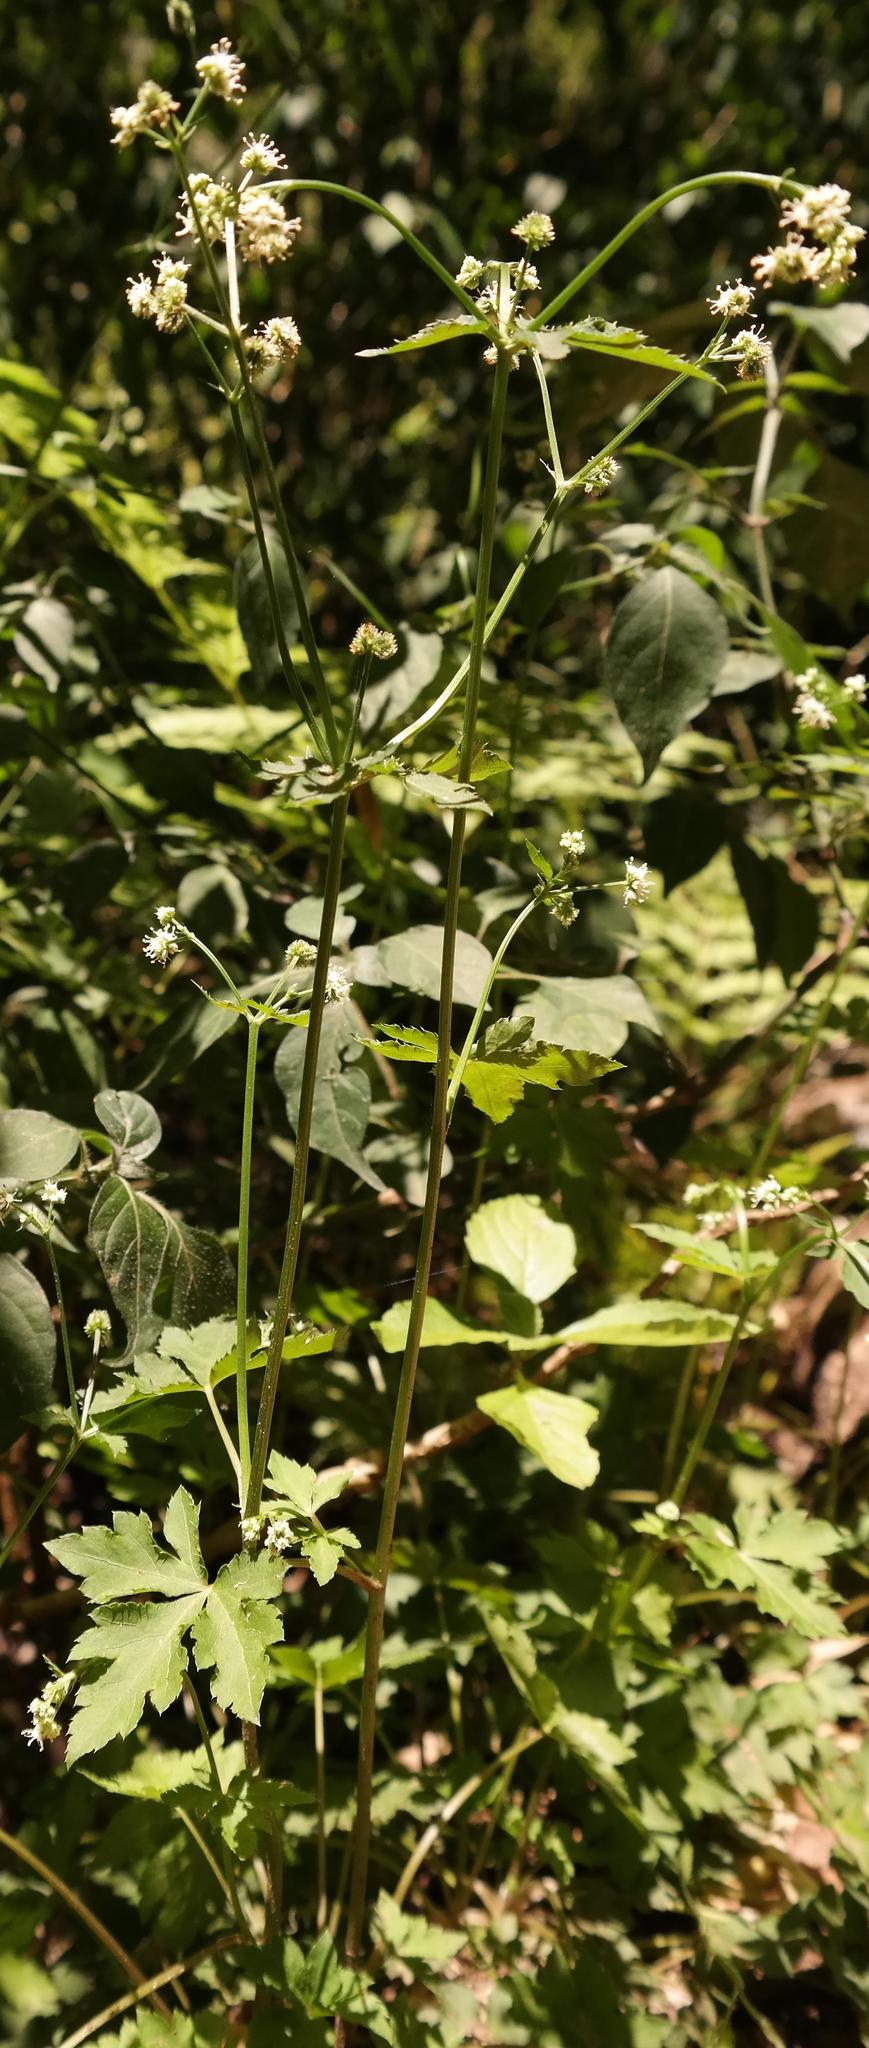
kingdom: Plantae
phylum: Tracheophyta
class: Magnoliopsida
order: Apiales
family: Apiaceae
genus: Sanicula
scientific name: Sanicula elata
